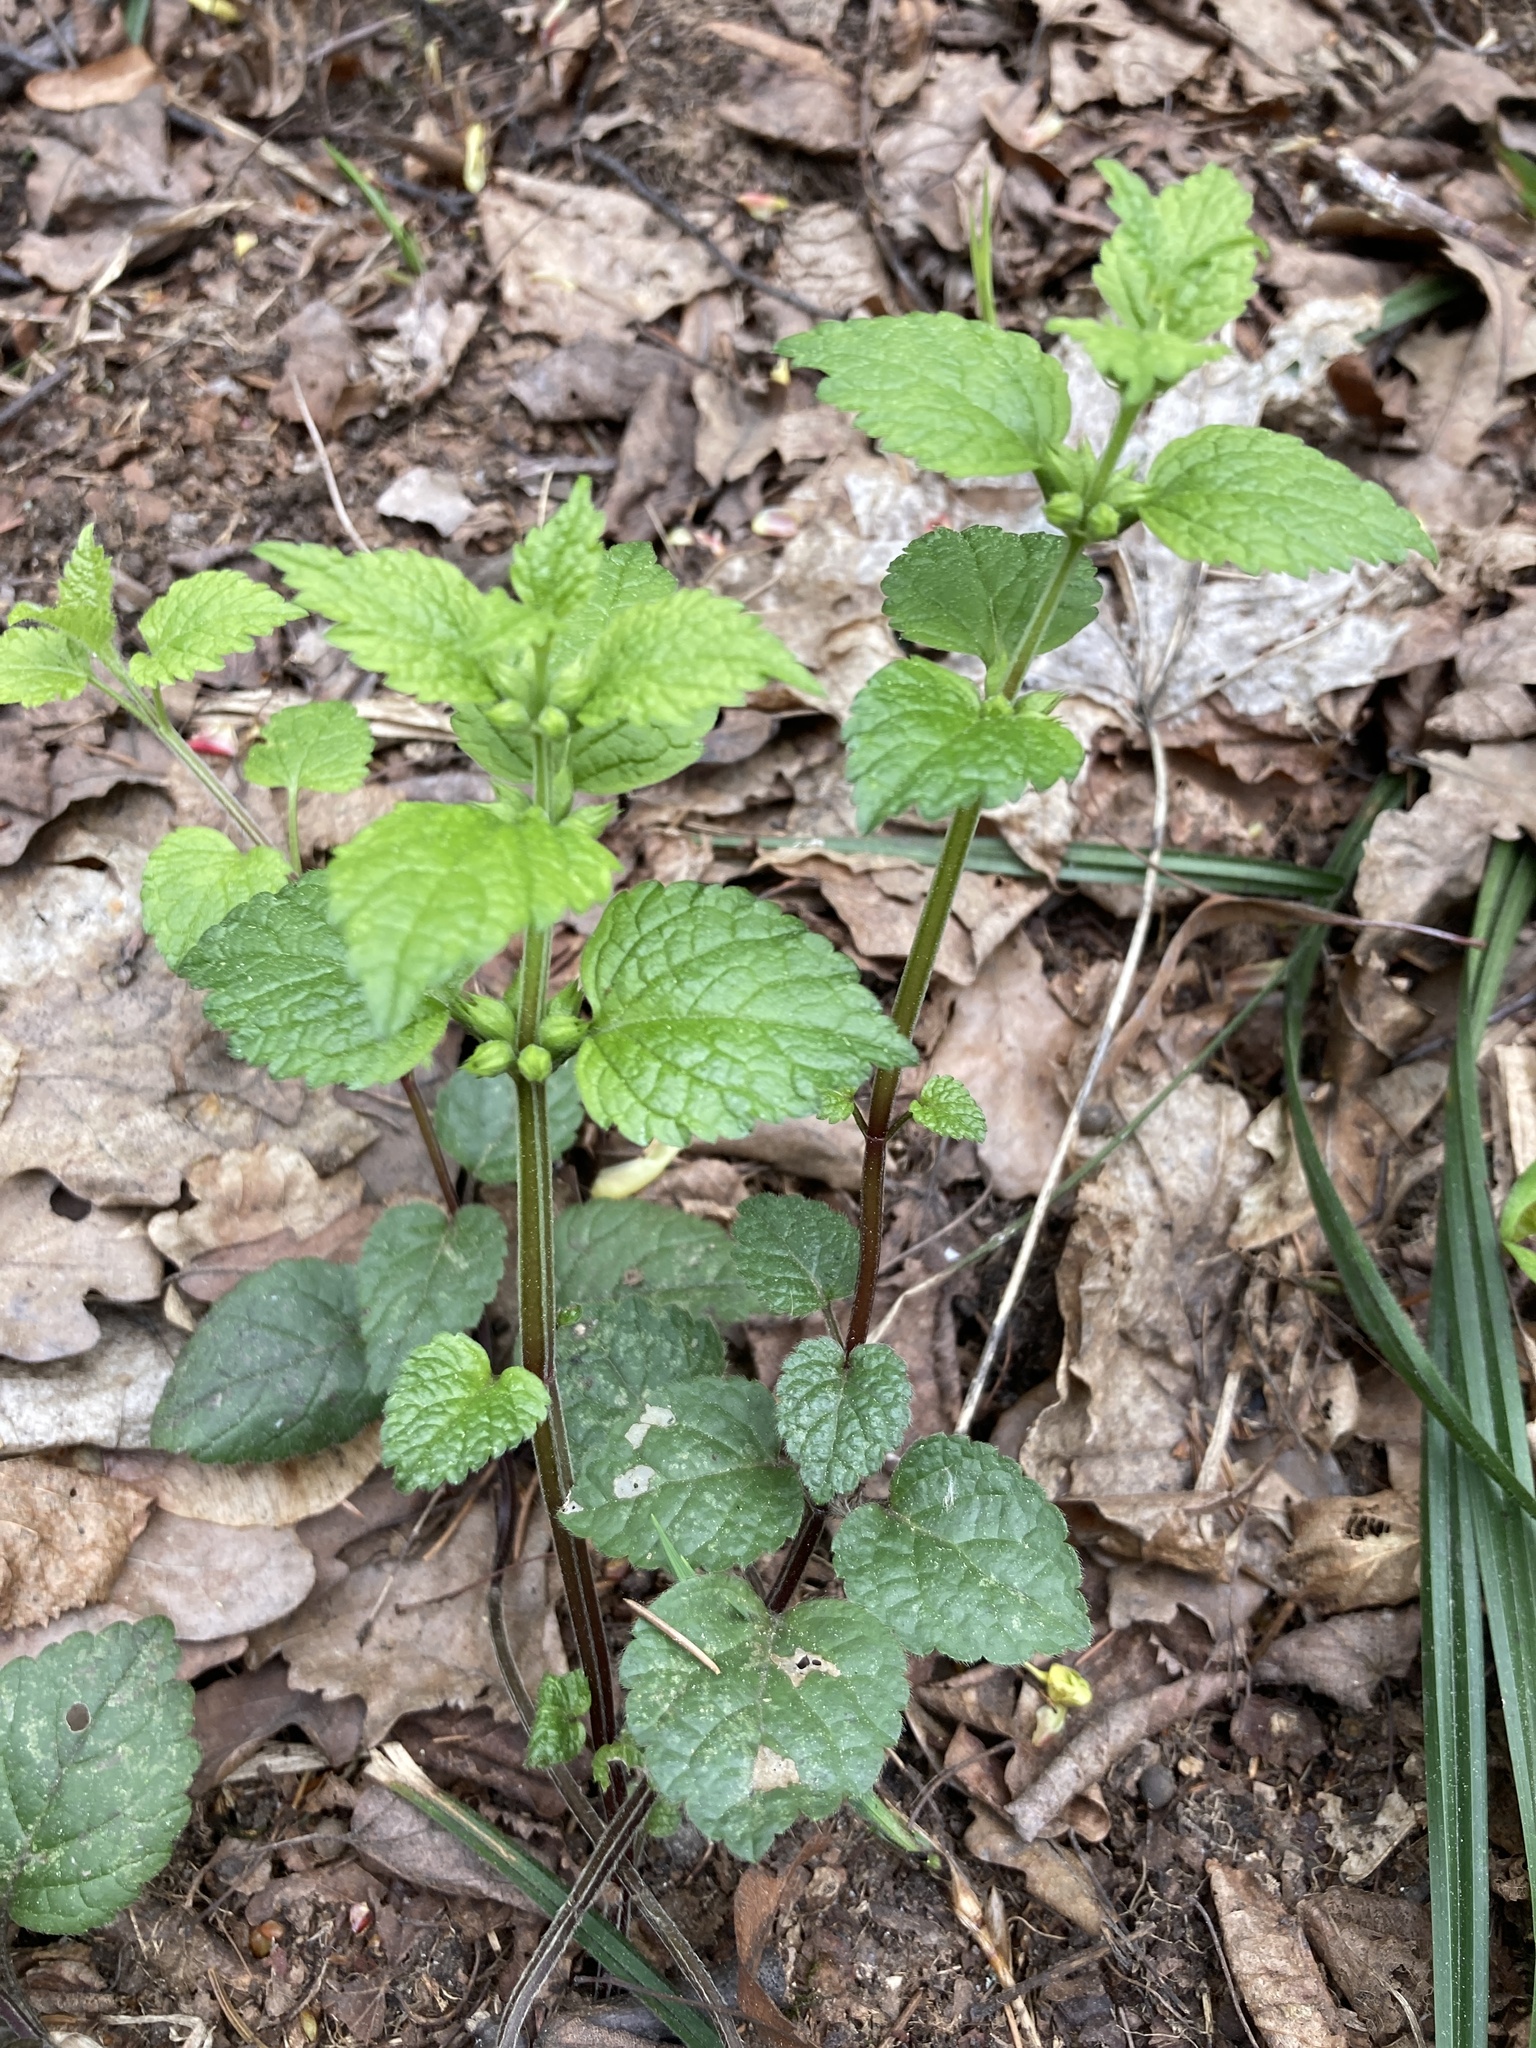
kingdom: Plantae
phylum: Tracheophyta
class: Magnoliopsida
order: Lamiales
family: Lamiaceae
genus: Lamium
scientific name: Lamium galeobdolon
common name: Yellow archangel
